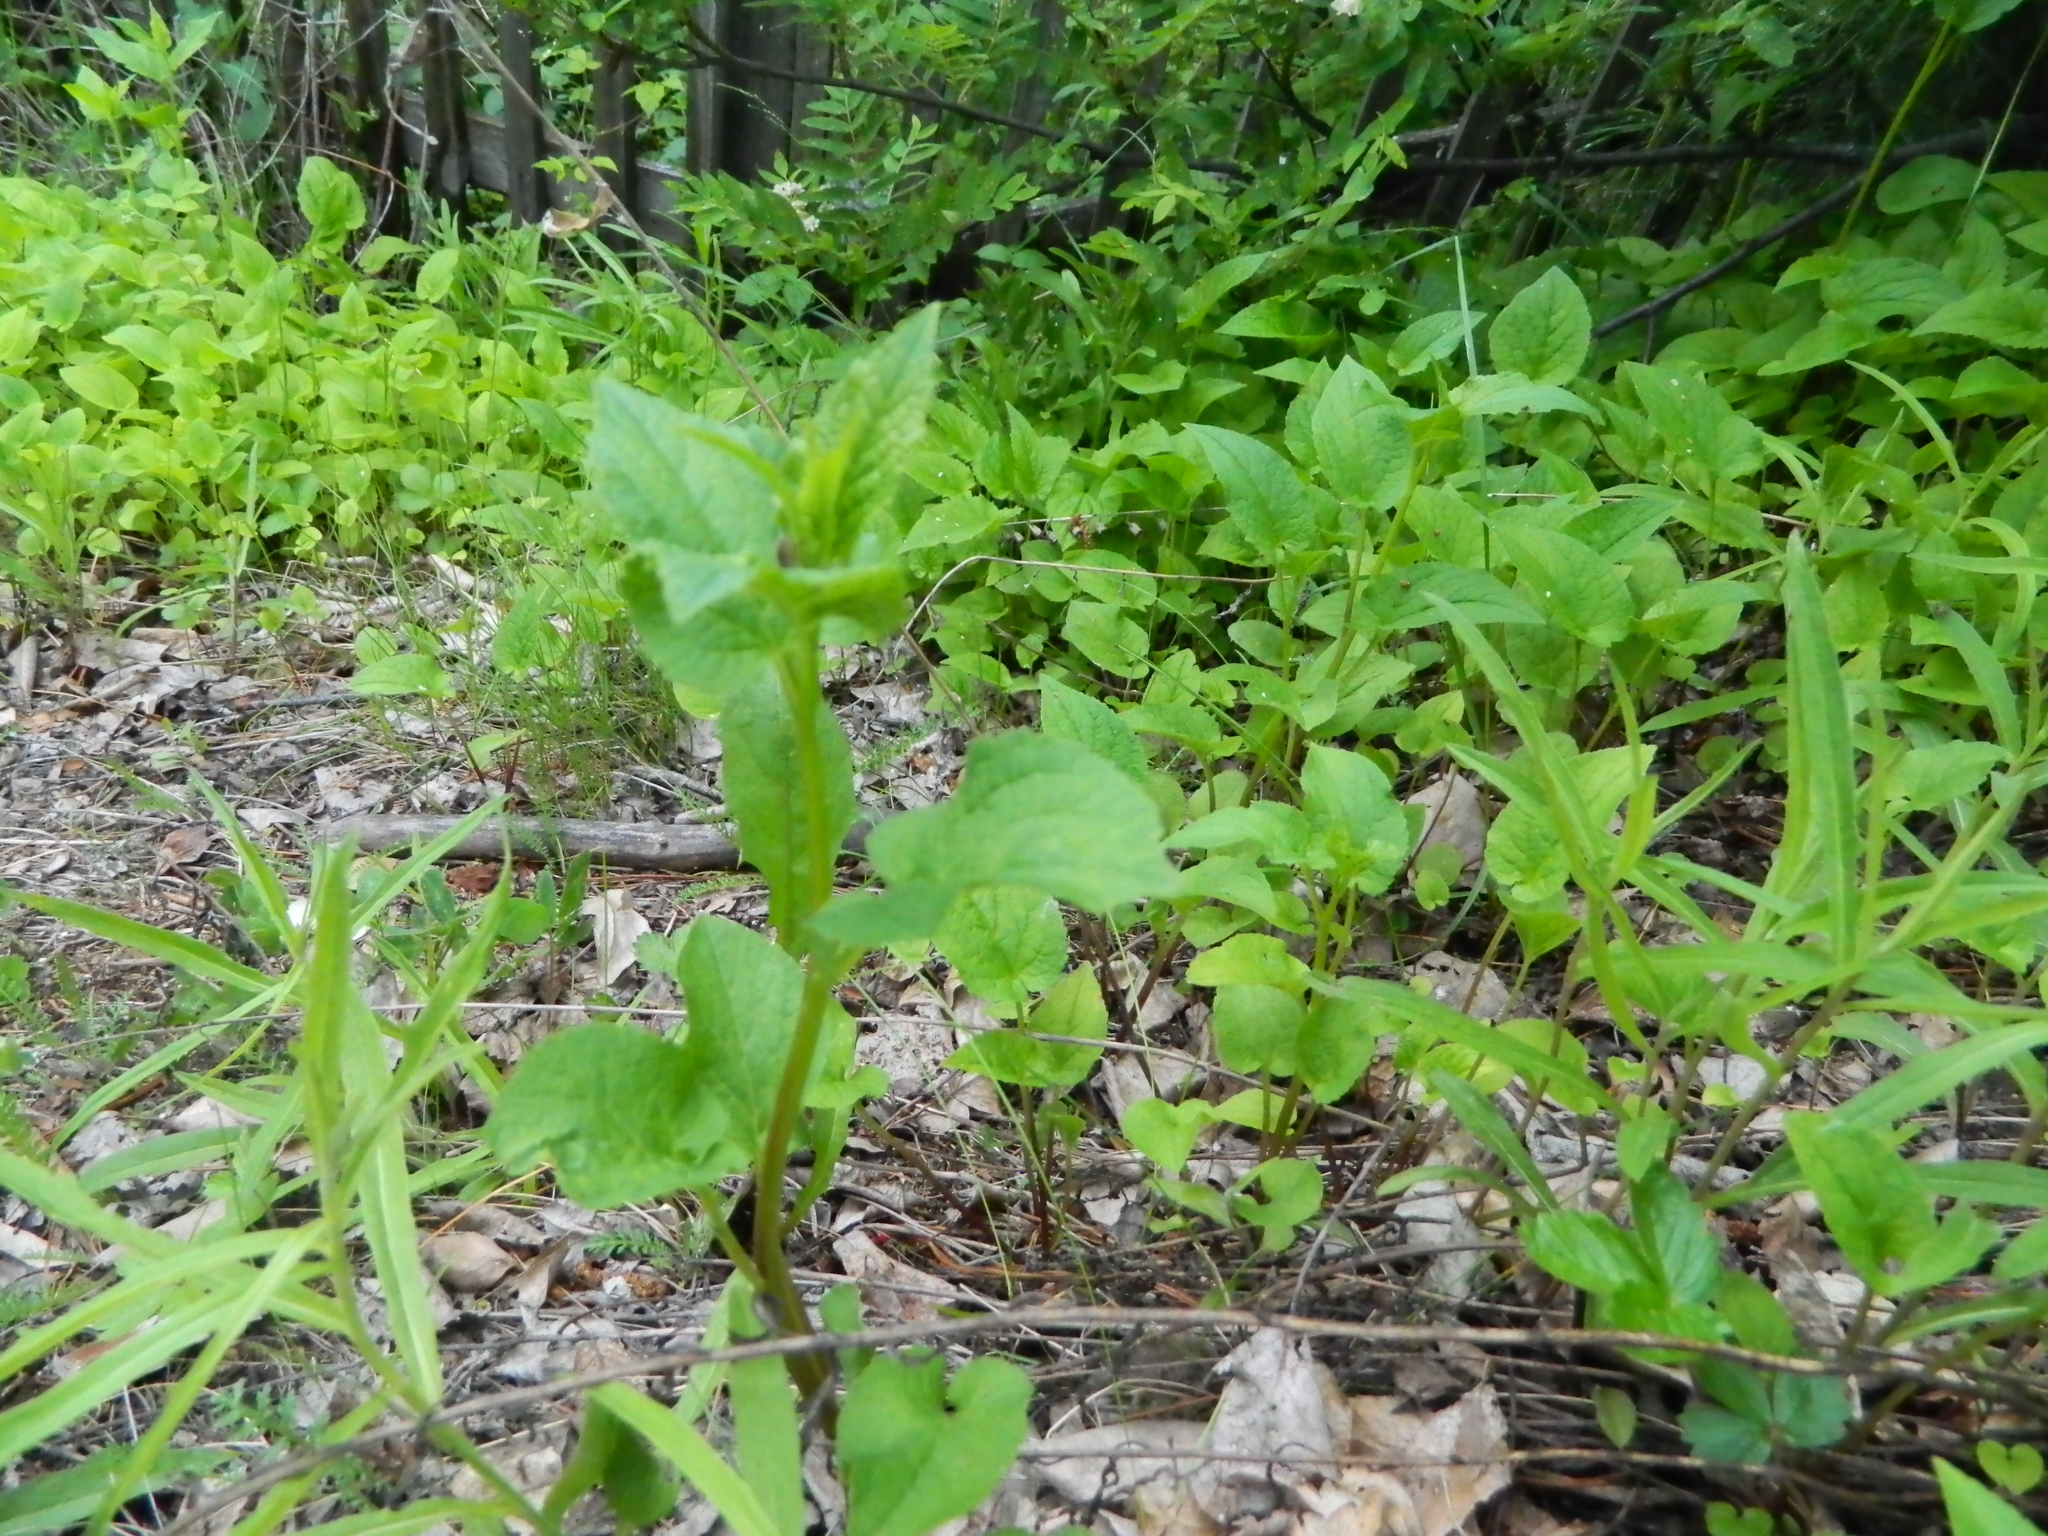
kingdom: Plantae
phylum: Tracheophyta
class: Magnoliopsida
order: Asterales
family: Campanulaceae
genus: Campanula
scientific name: Campanula rapunculoides
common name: Creeping bellflower
